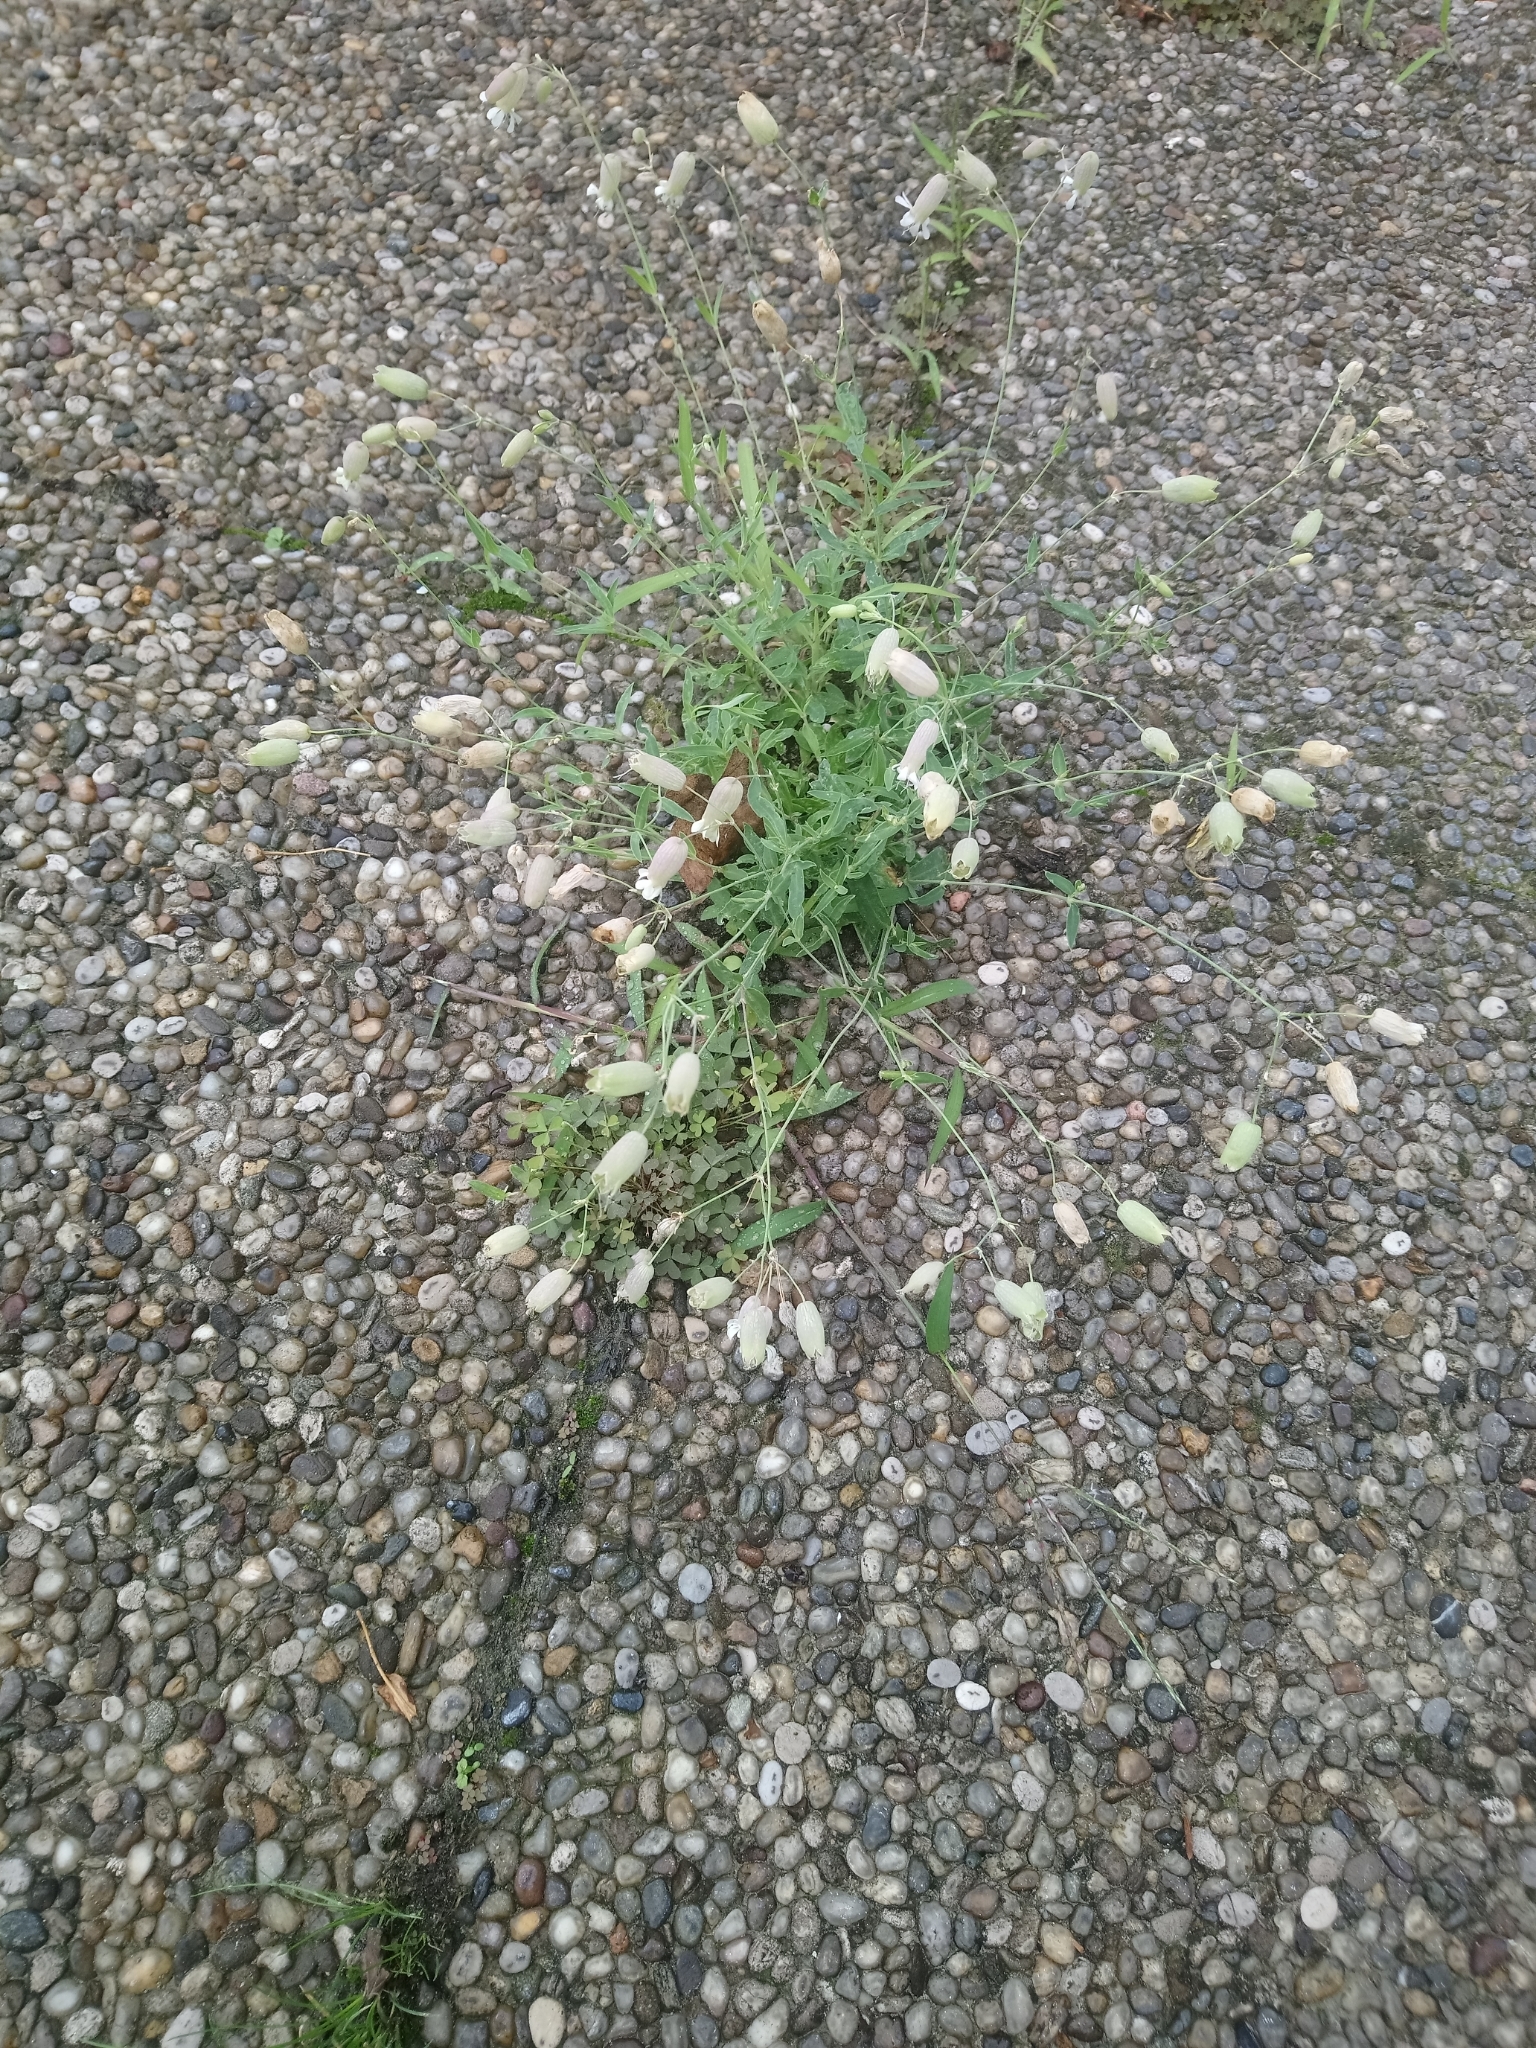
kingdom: Plantae
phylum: Tracheophyta
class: Magnoliopsida
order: Caryophyllales
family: Caryophyllaceae
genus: Silene
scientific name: Silene vulgaris
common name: Bladder campion
